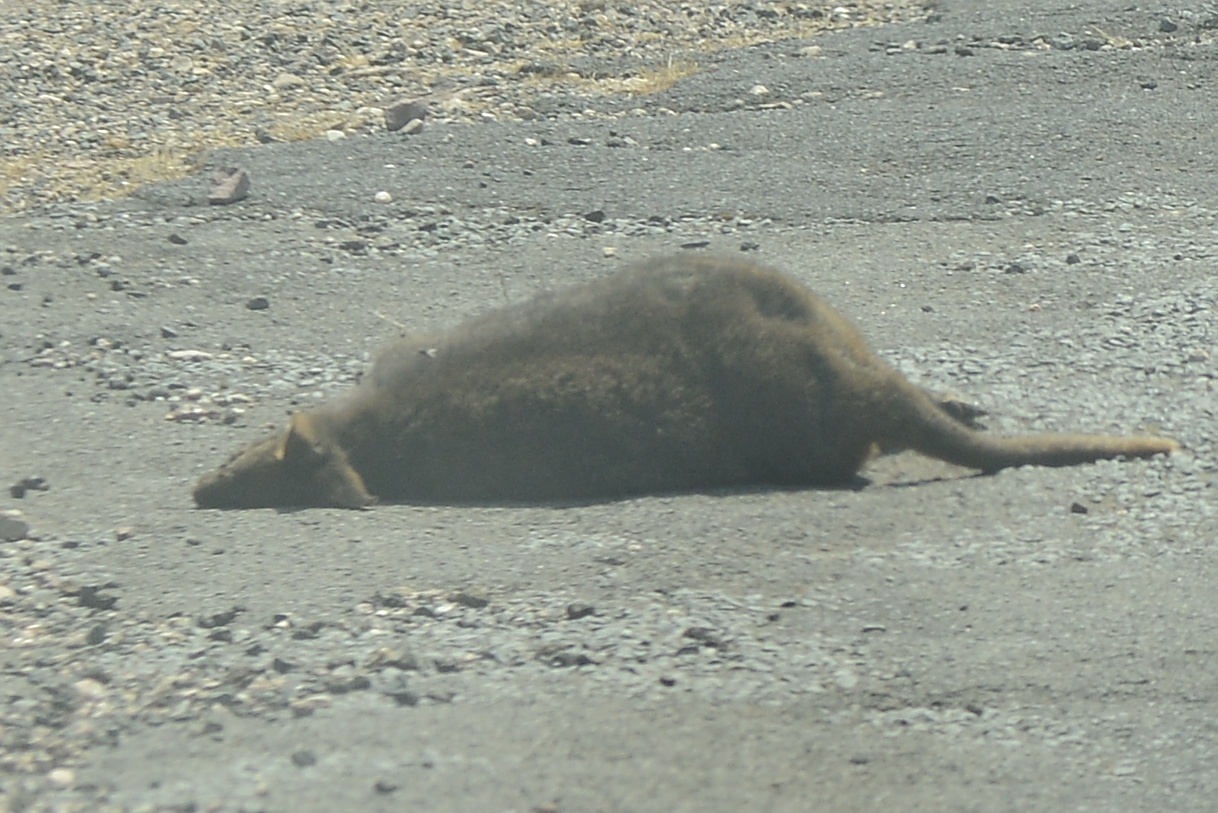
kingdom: Animalia
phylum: Chordata
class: Mammalia
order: Diprotodontia
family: Macropodidae
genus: Thylogale
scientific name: Thylogale billardierii
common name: Tasmanian pademelon
